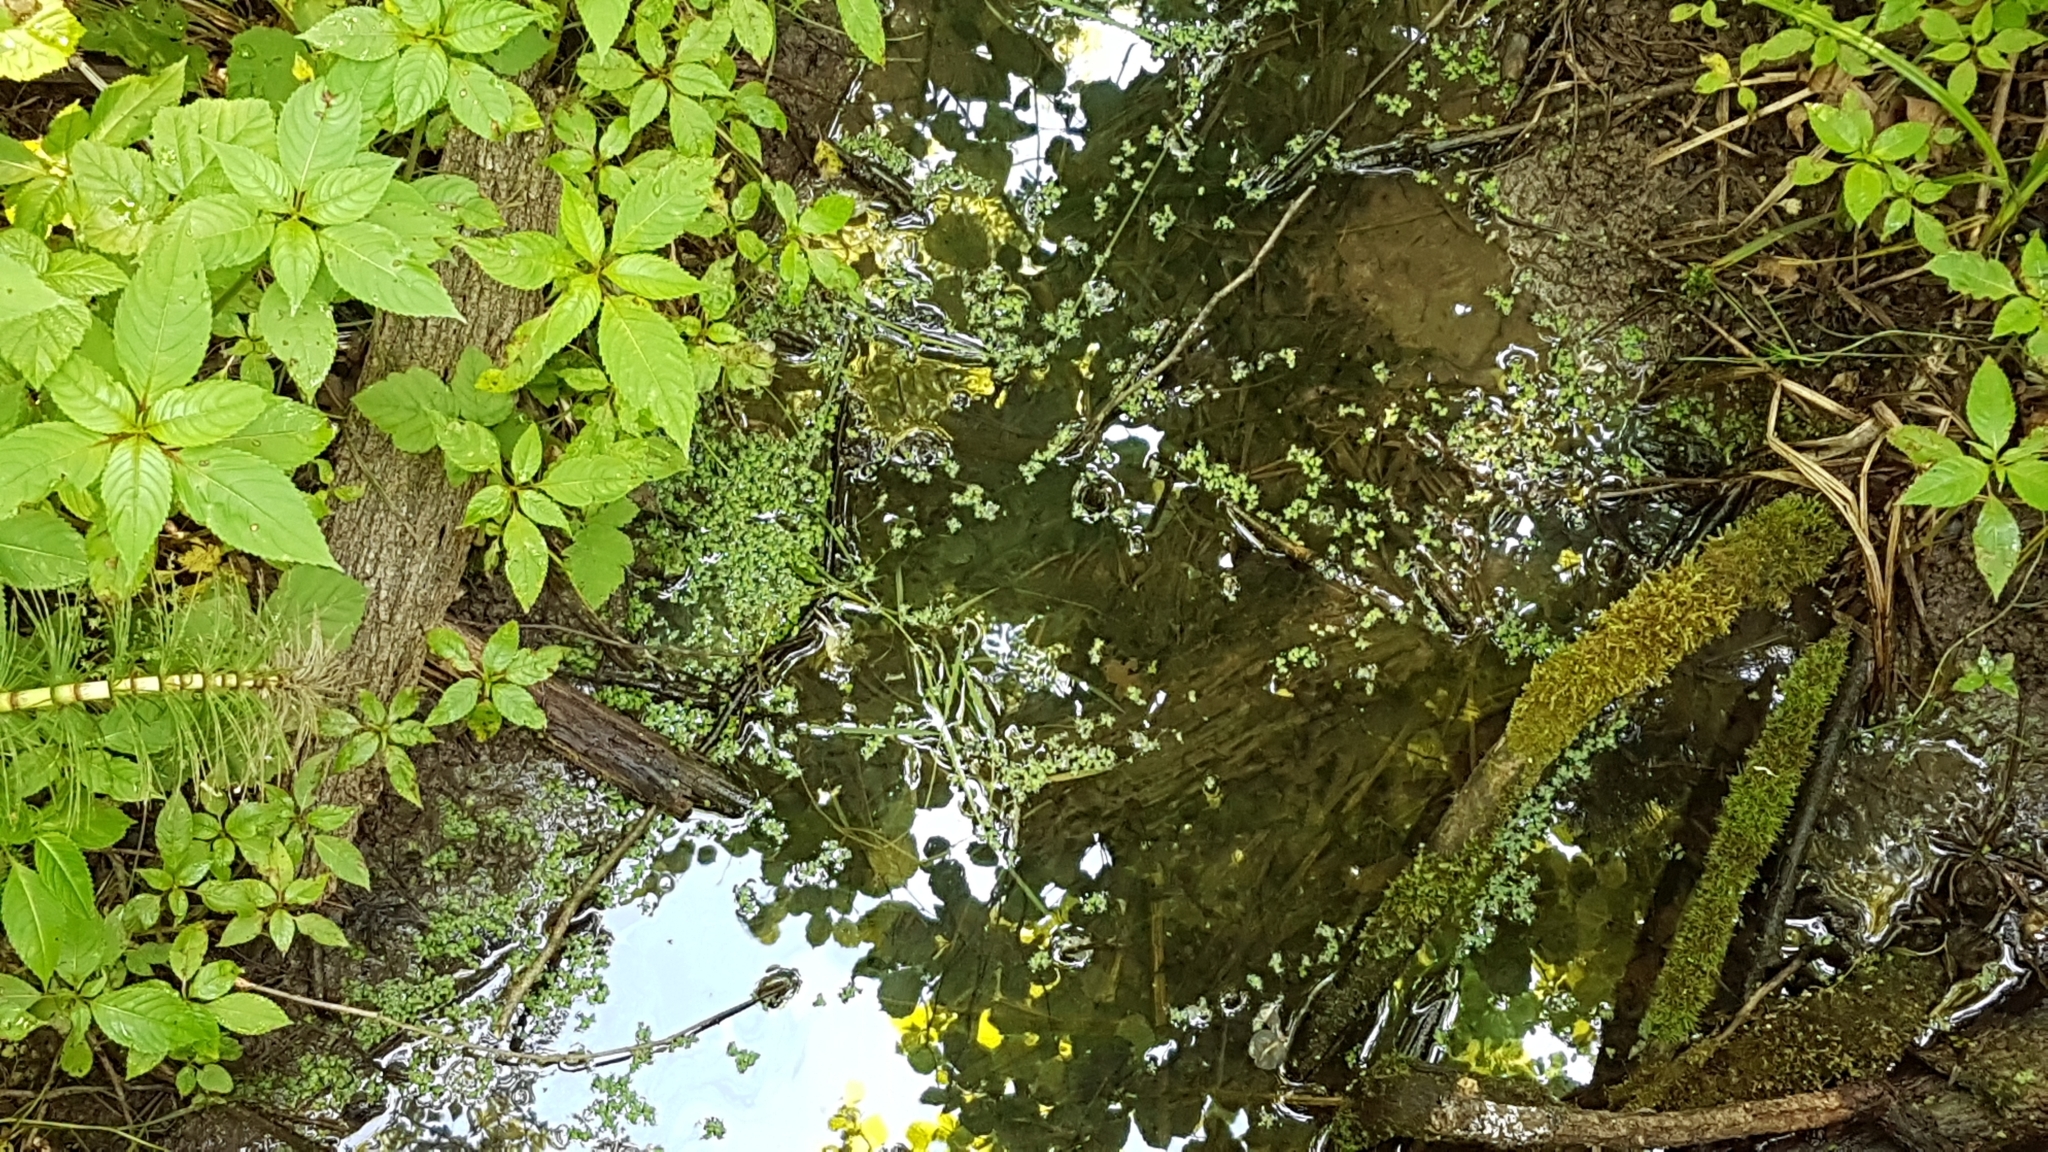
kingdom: Plantae
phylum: Tracheophyta
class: Liliopsida
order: Alismatales
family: Araceae
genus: Lemna
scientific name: Lemna minor
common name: Common duckweed
